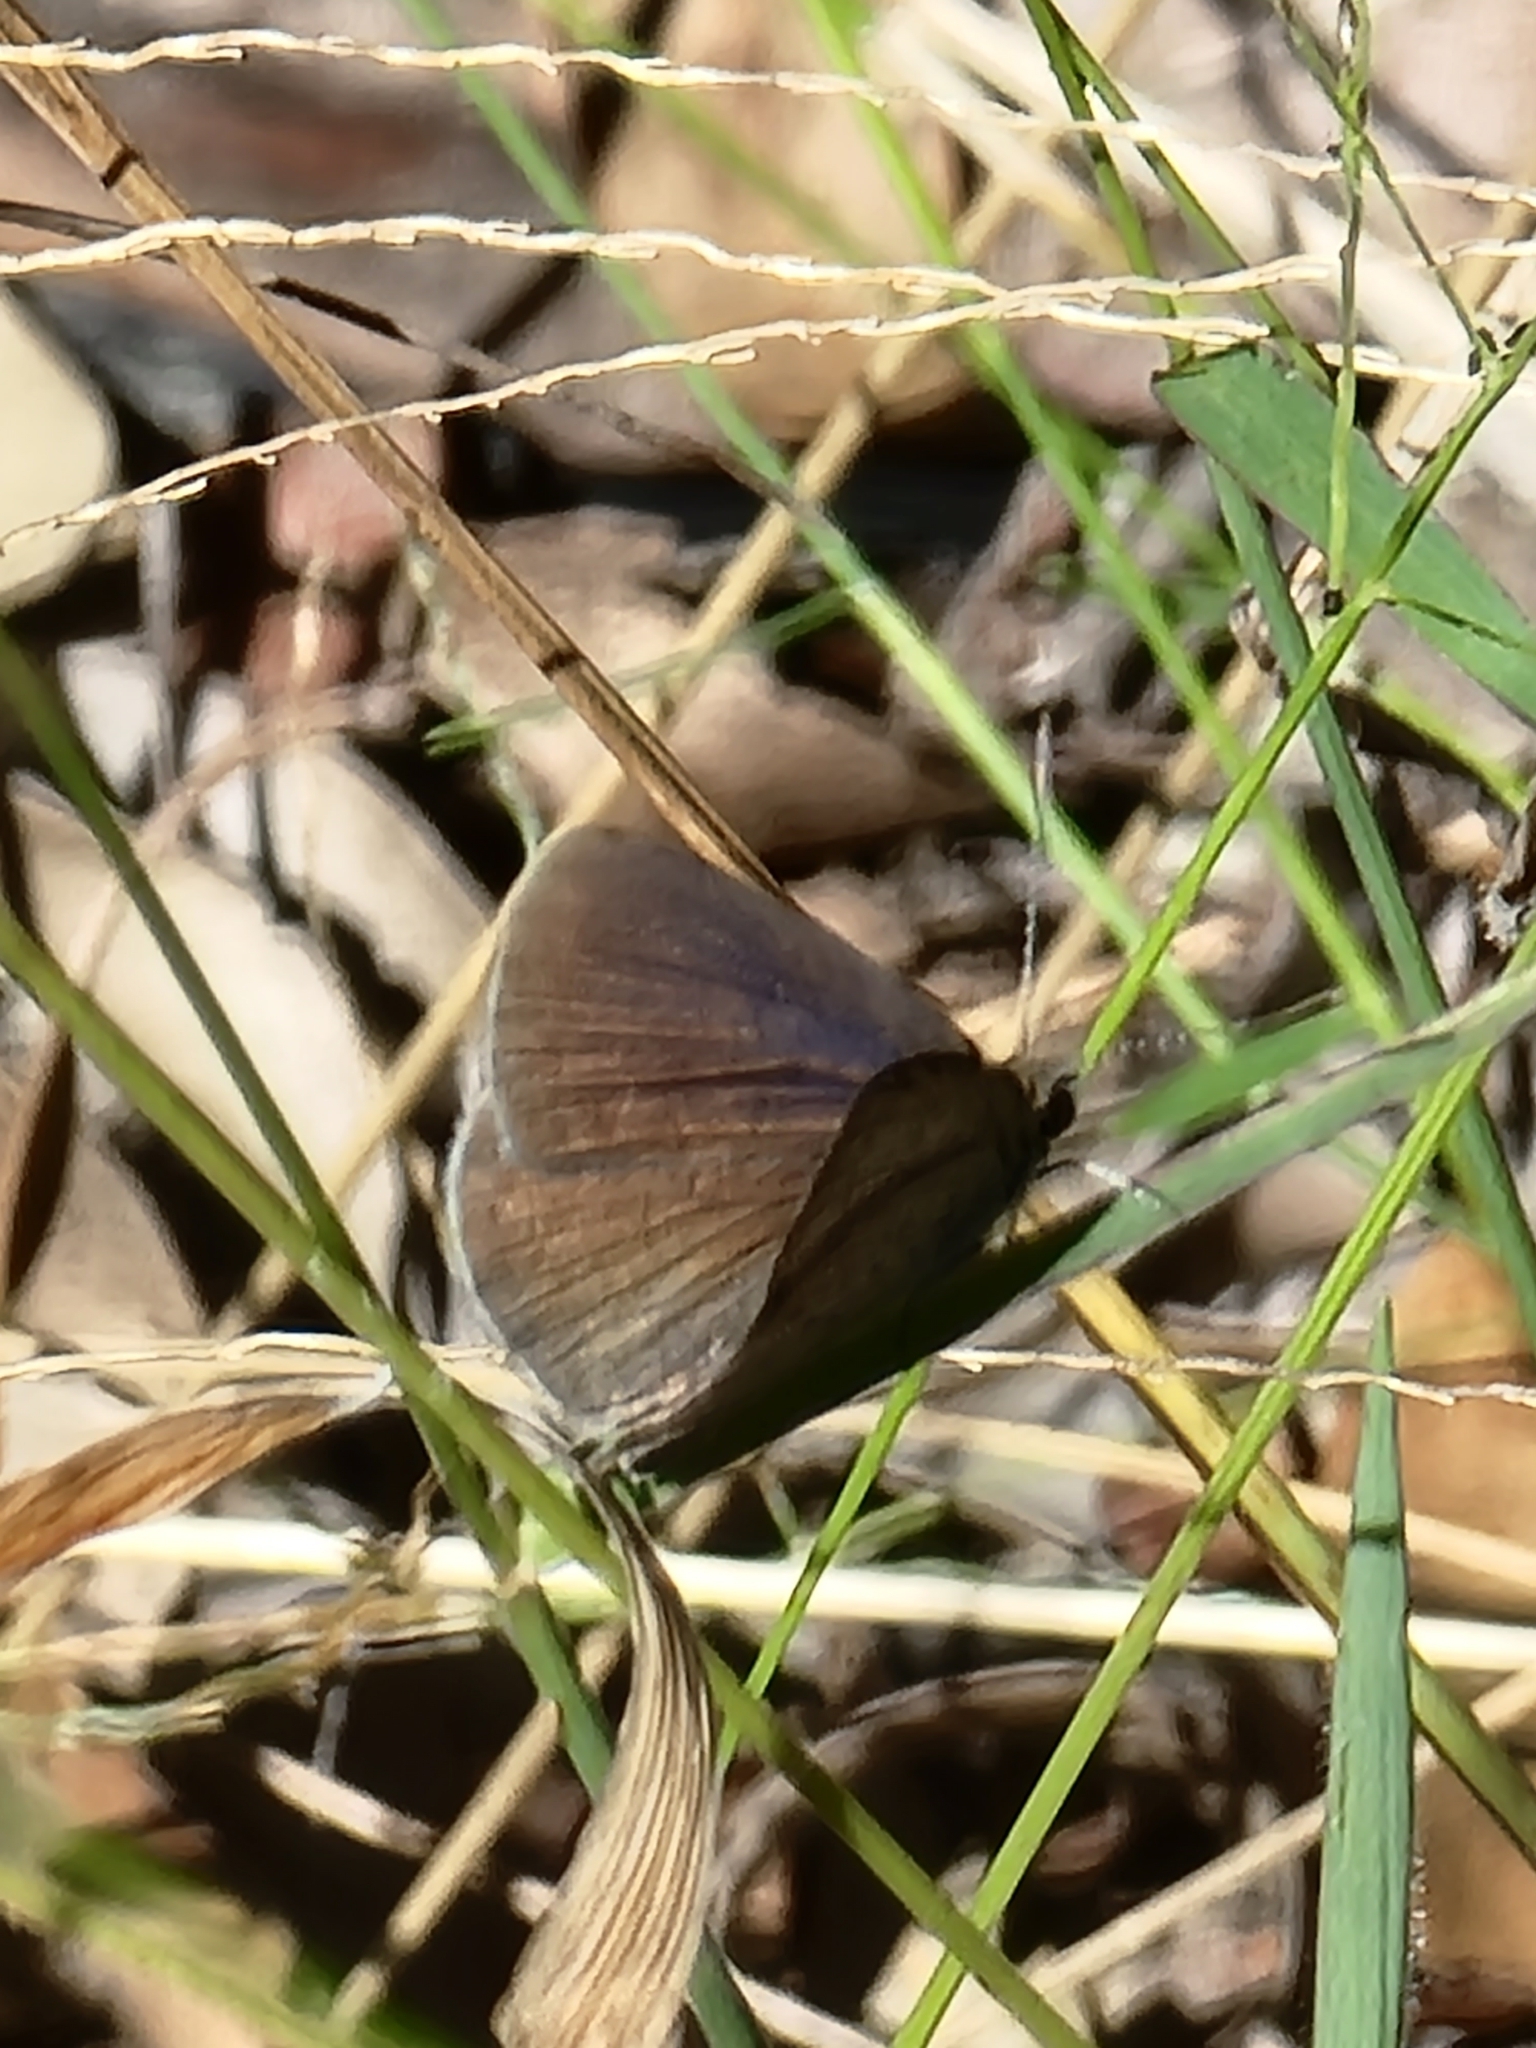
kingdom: Animalia
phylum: Arthropoda
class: Insecta
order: Lepidoptera
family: Lycaenidae
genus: Candalides
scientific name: Candalides
